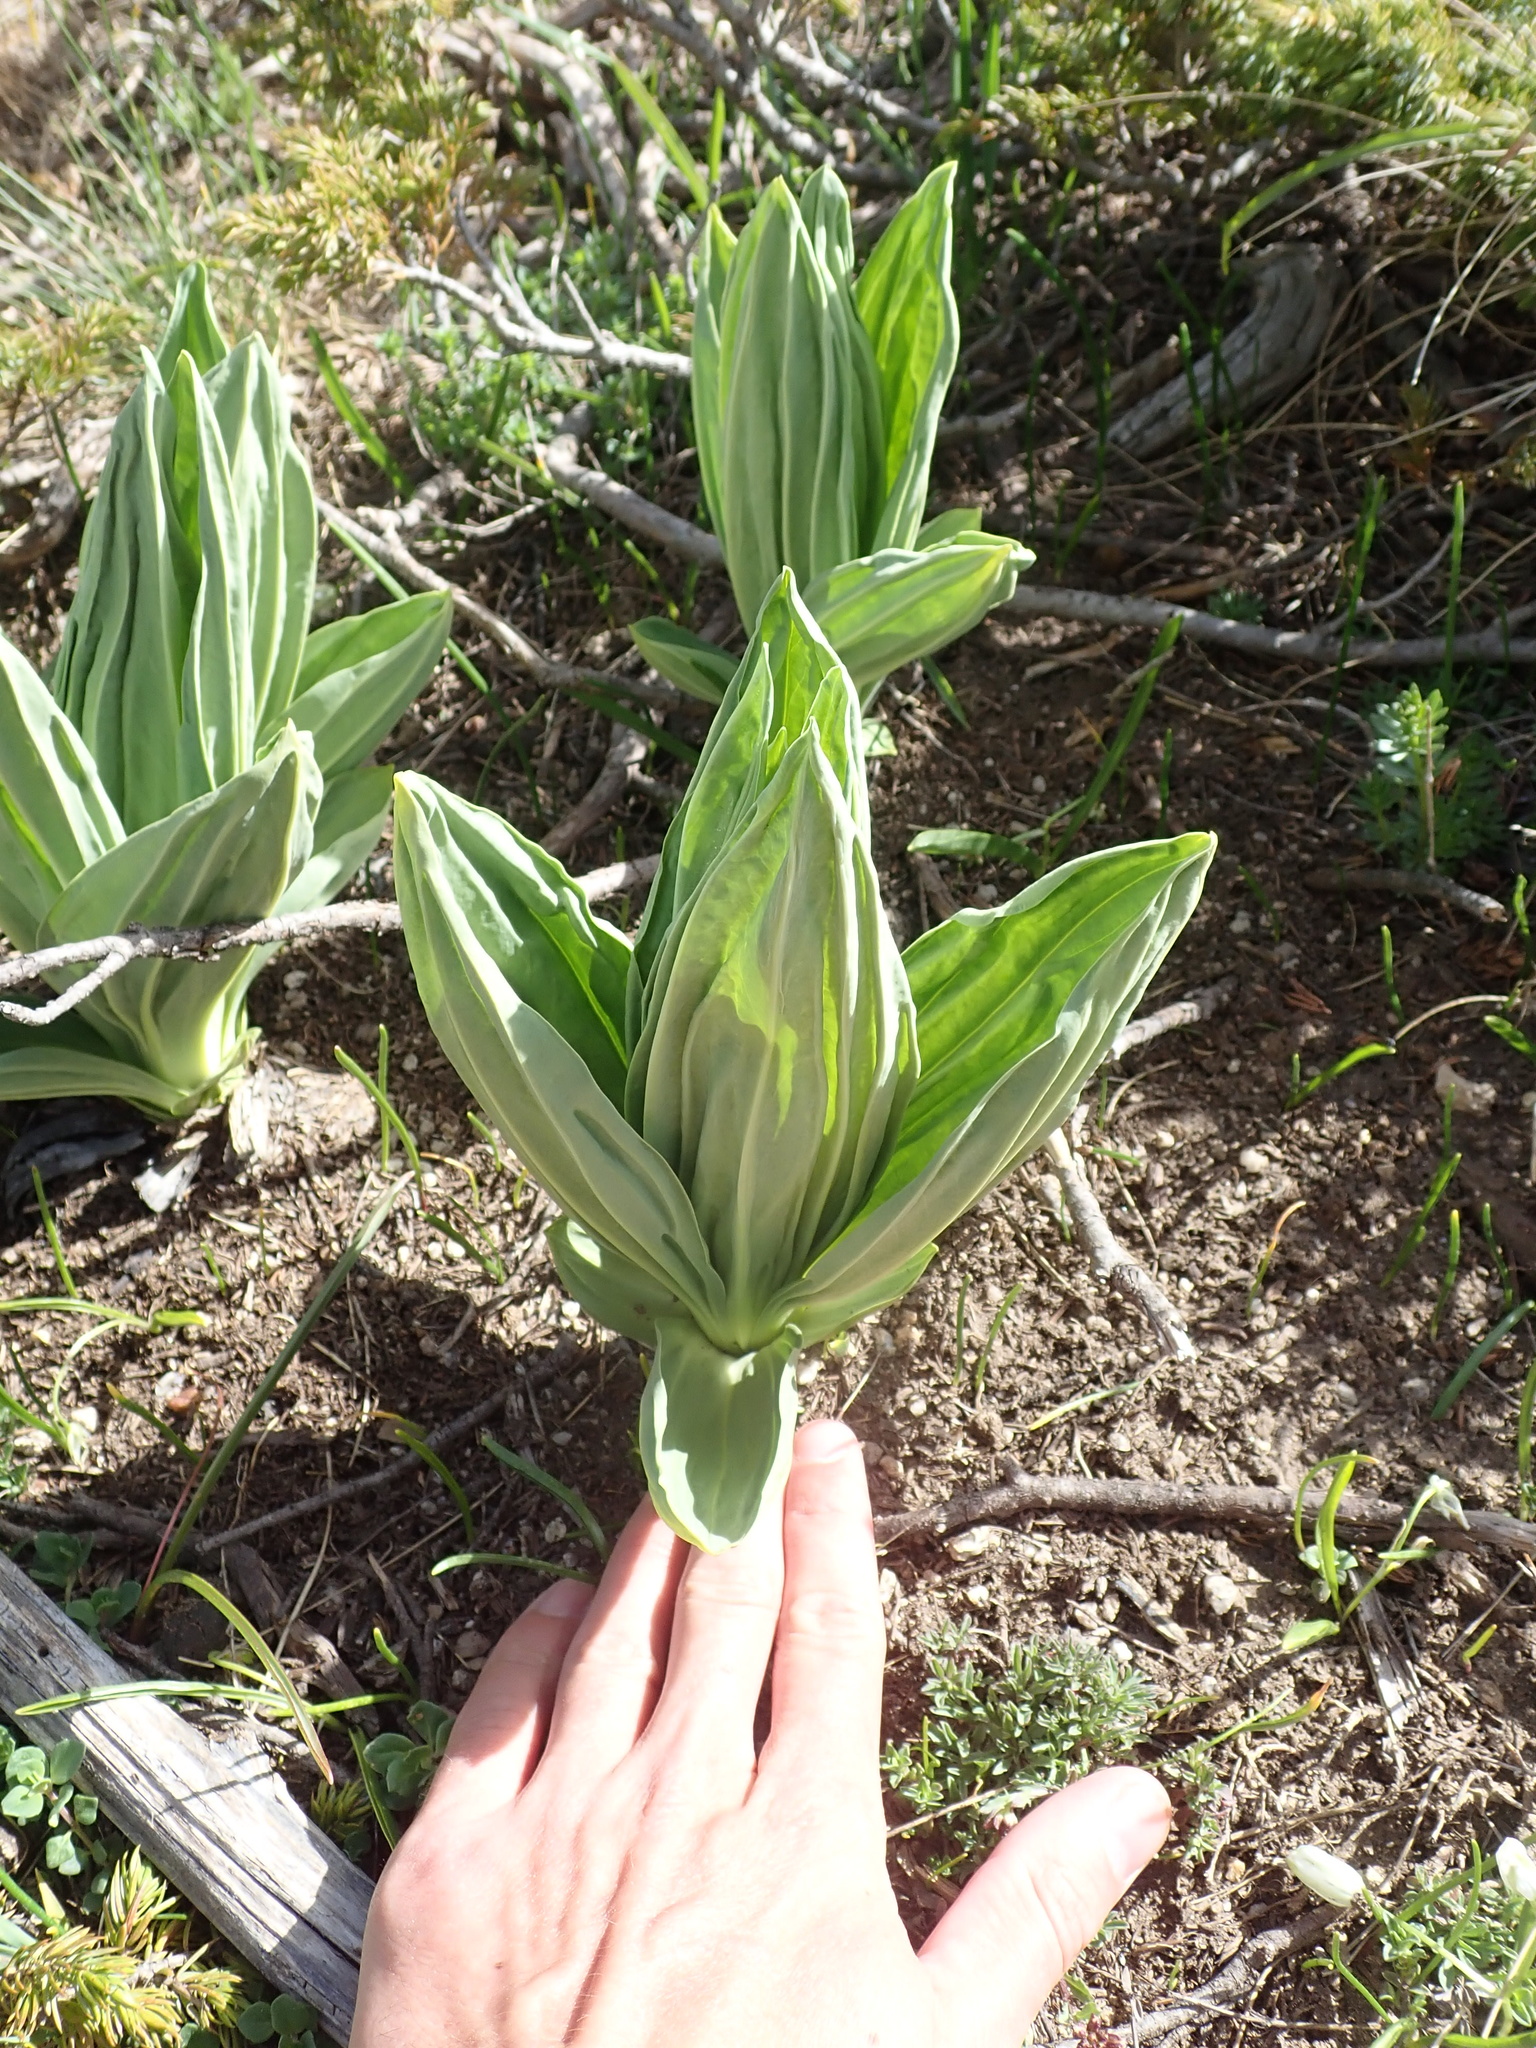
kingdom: Plantae
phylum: Tracheophyta
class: Magnoliopsida
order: Gentianales
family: Gentianaceae
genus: Gentiana
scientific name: Gentiana lutea
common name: Great yellow gentian
